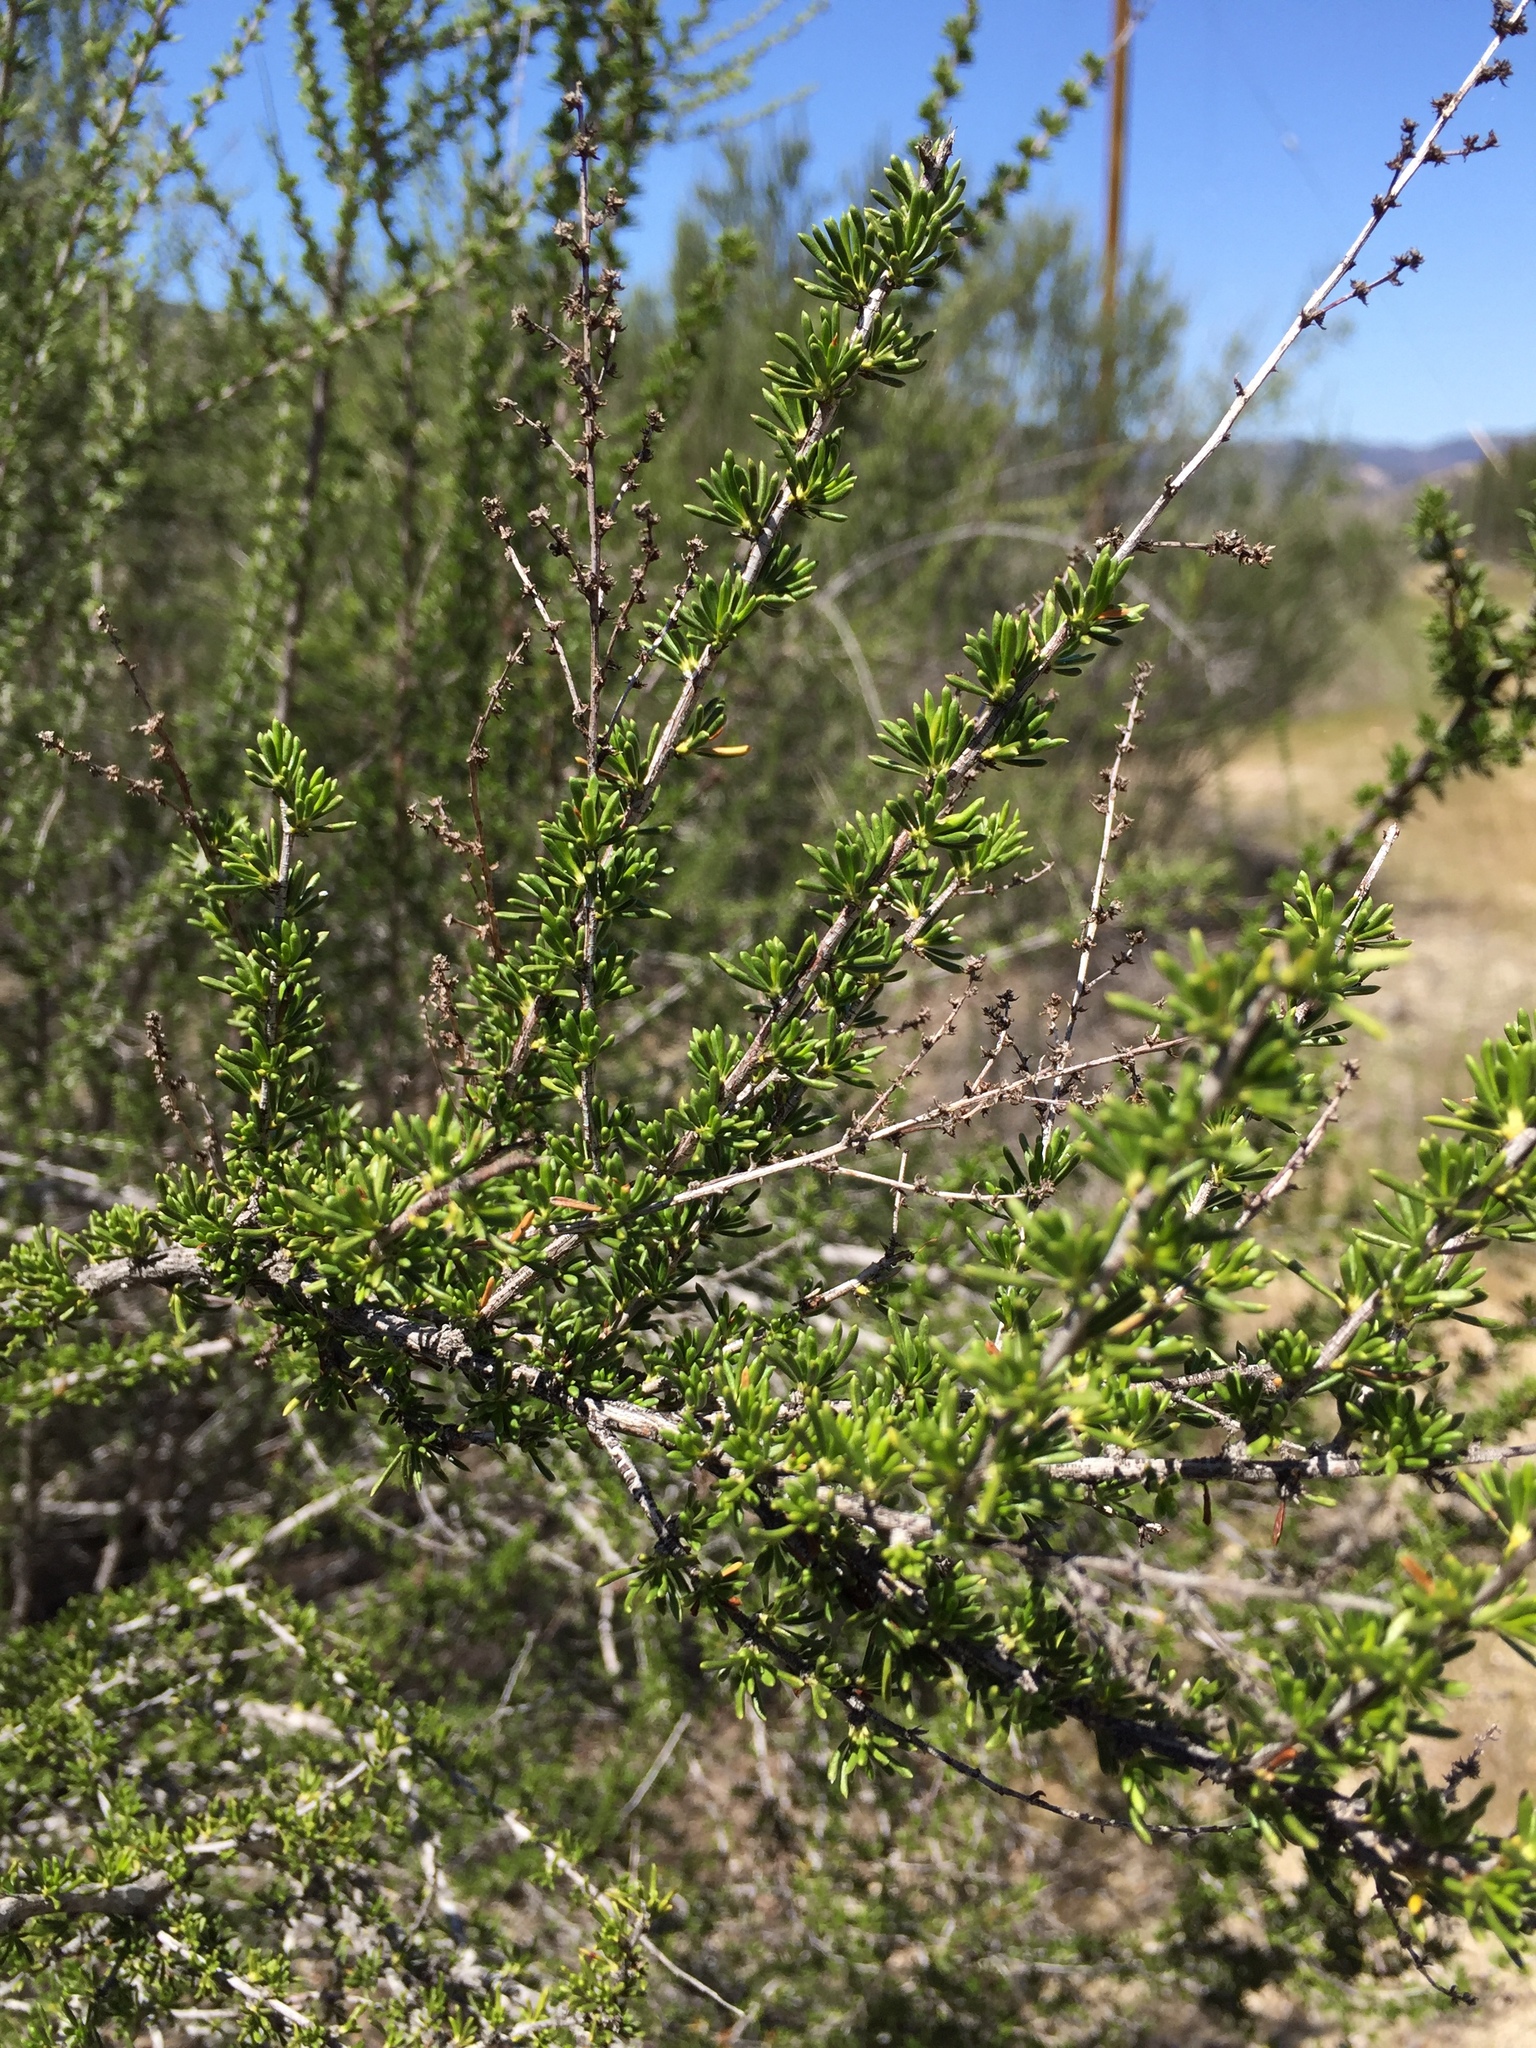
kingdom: Plantae
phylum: Tracheophyta
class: Magnoliopsida
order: Rosales
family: Rosaceae
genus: Adenostoma
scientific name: Adenostoma fasciculatum
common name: Chamise
